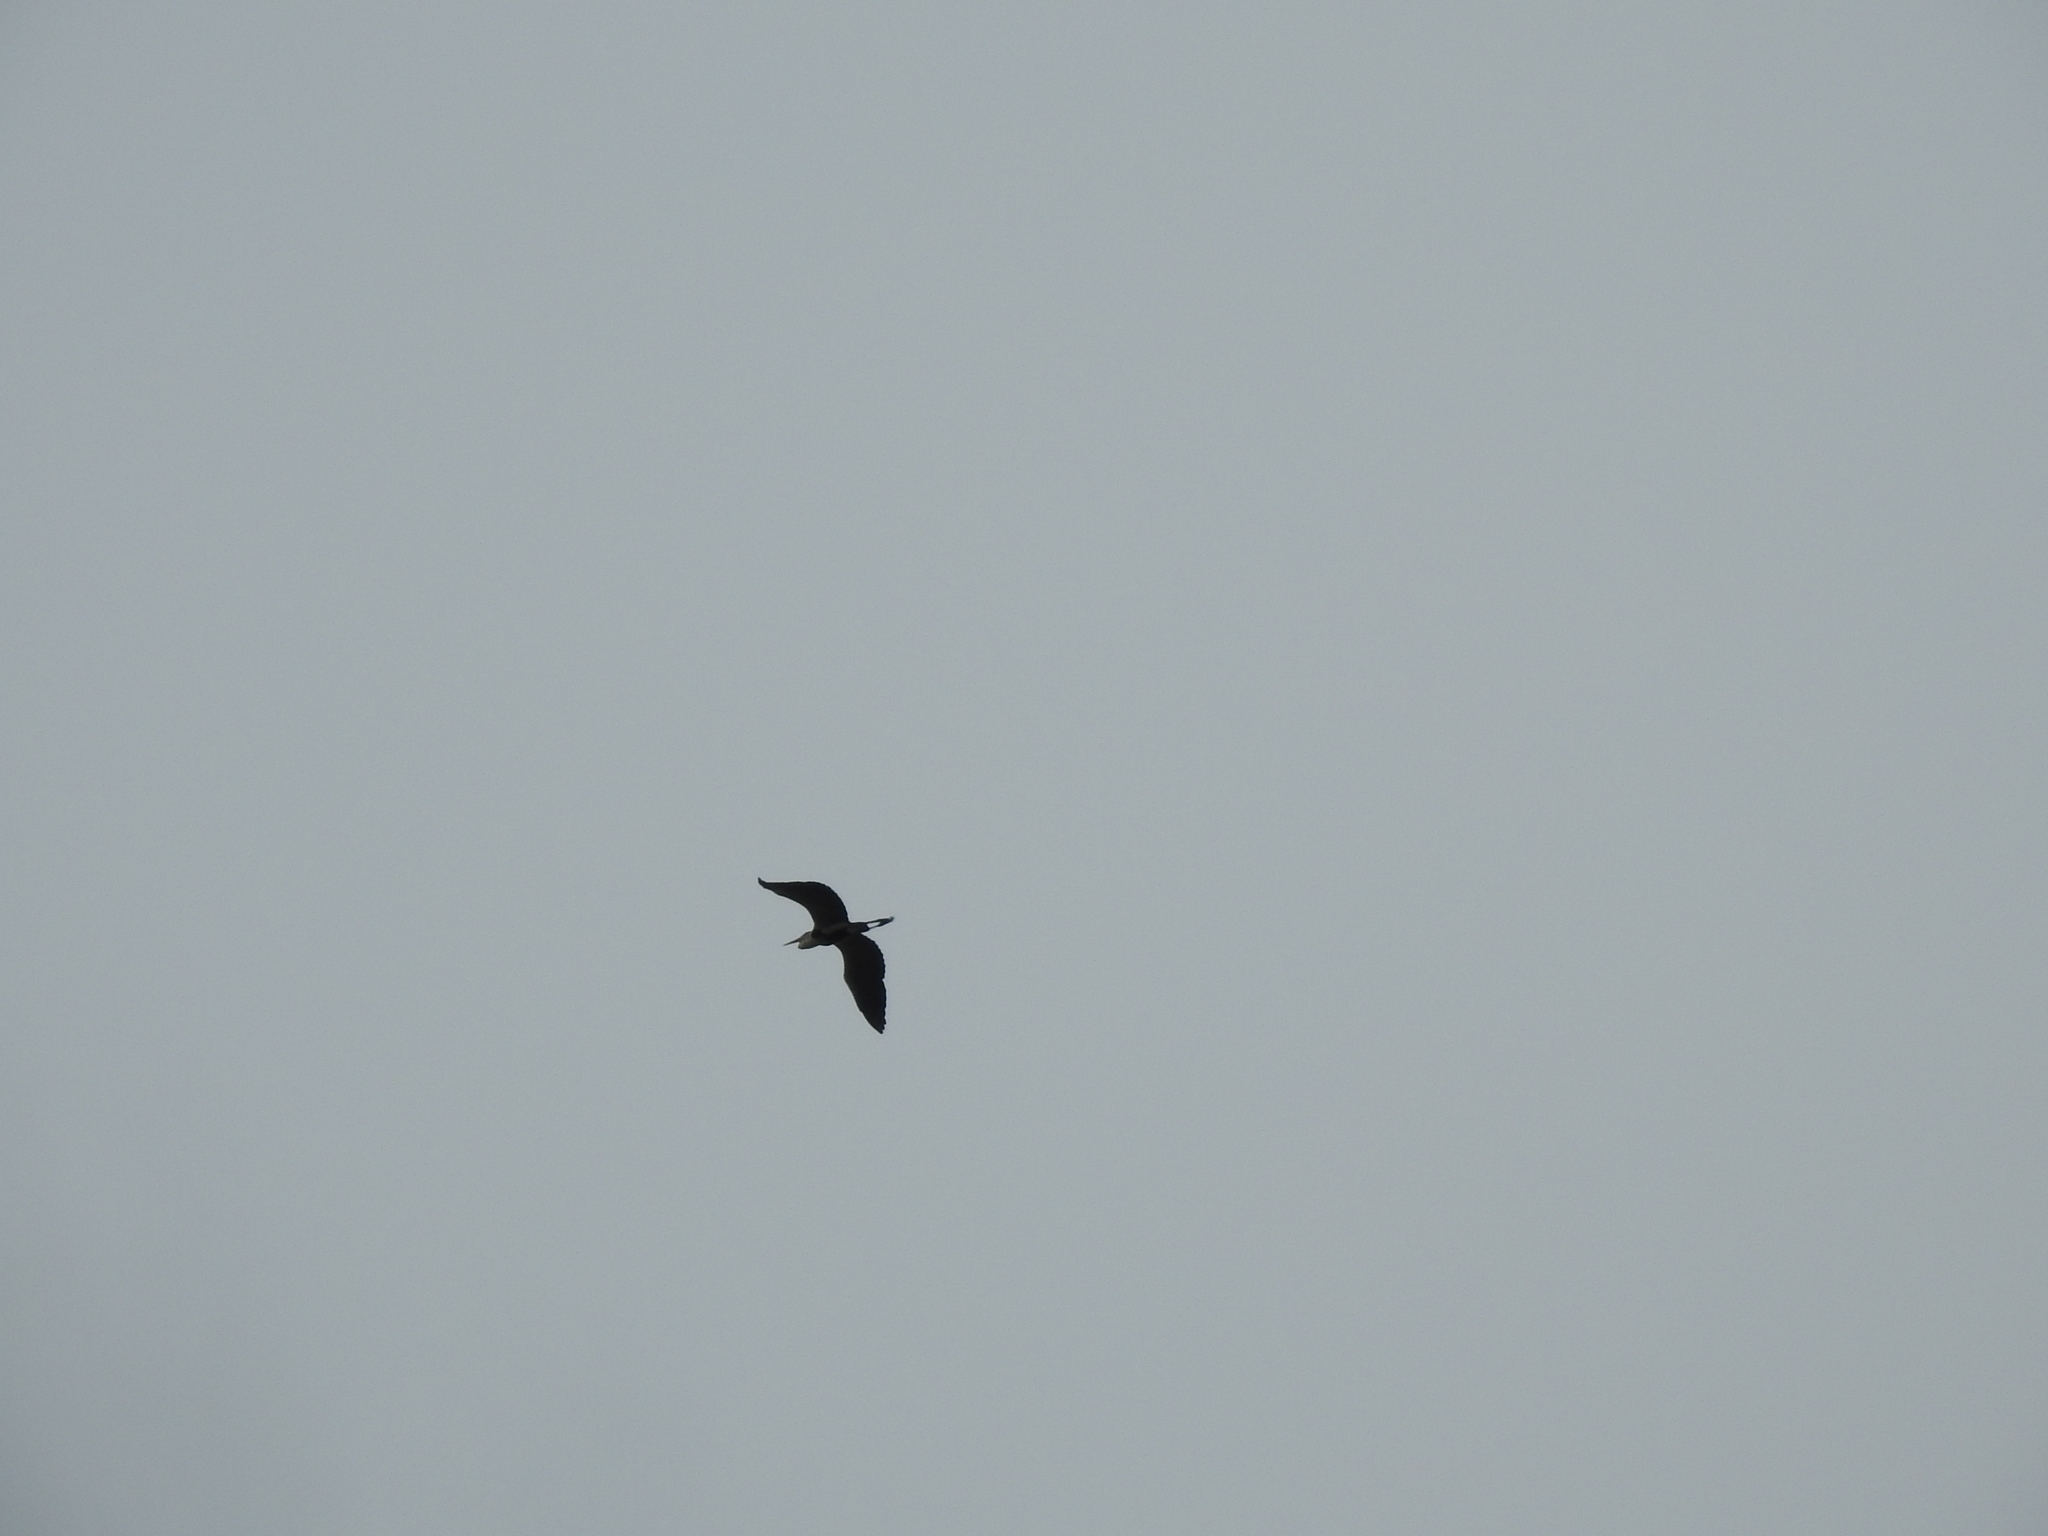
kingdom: Animalia
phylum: Chordata
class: Aves
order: Pelecaniformes
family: Ardeidae
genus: Ardea
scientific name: Ardea cocoi
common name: Cocoi heron
